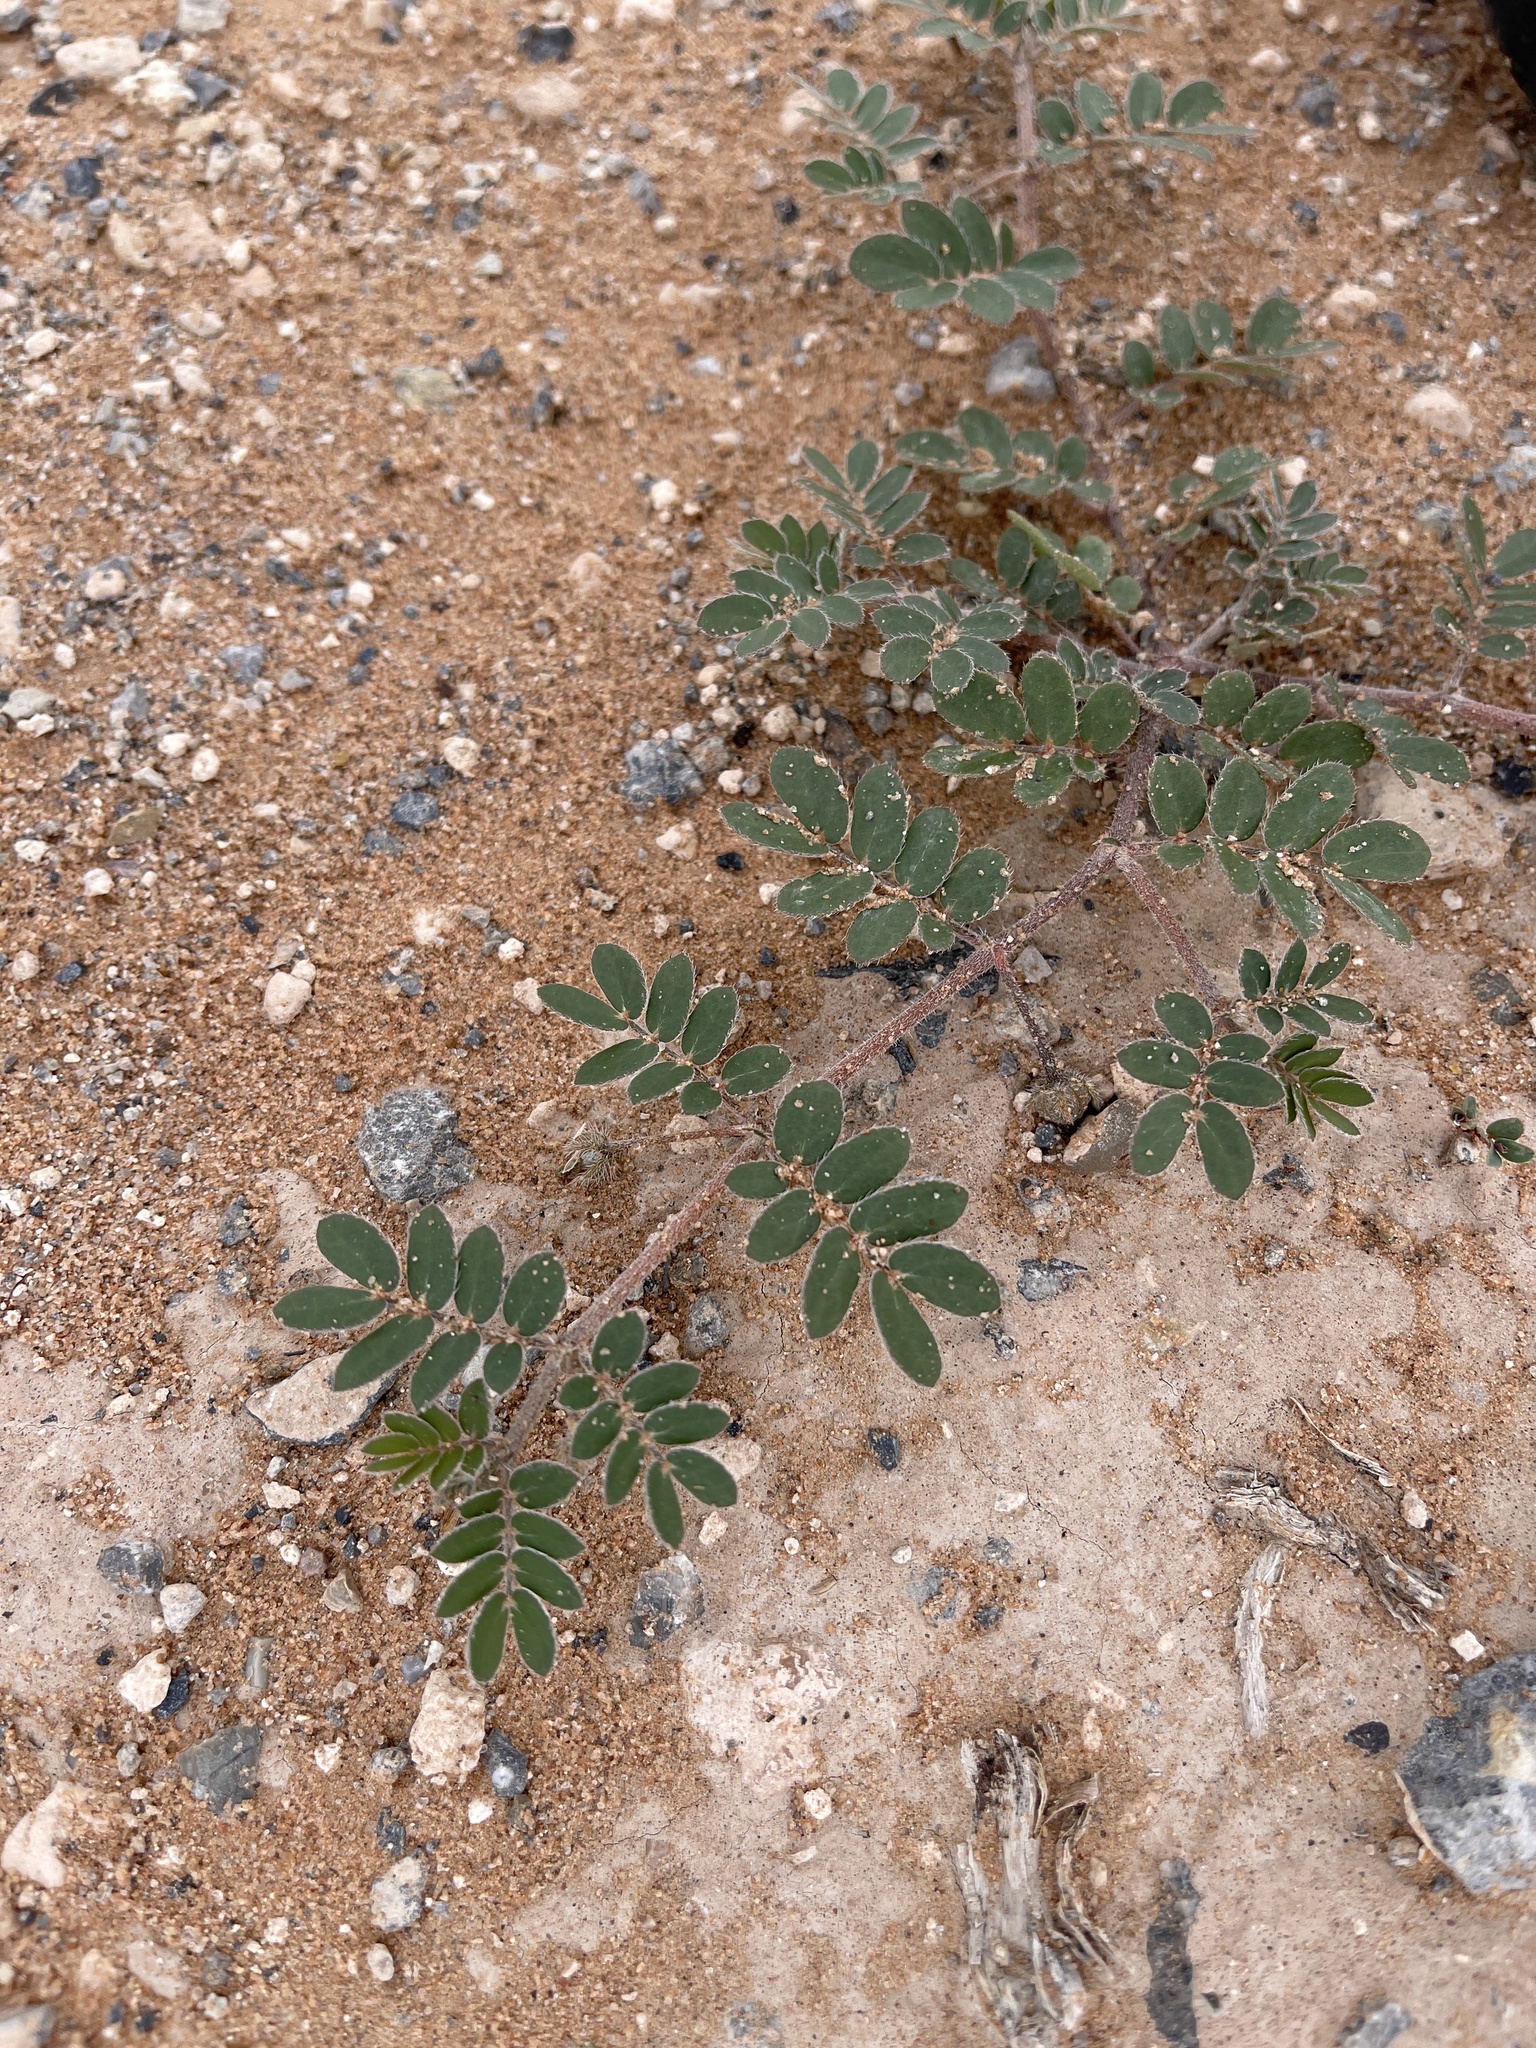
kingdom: Plantae
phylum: Tracheophyta
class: Magnoliopsida
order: Fabales
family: Fabaceae
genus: Senna
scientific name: Senna lindheimeriana
